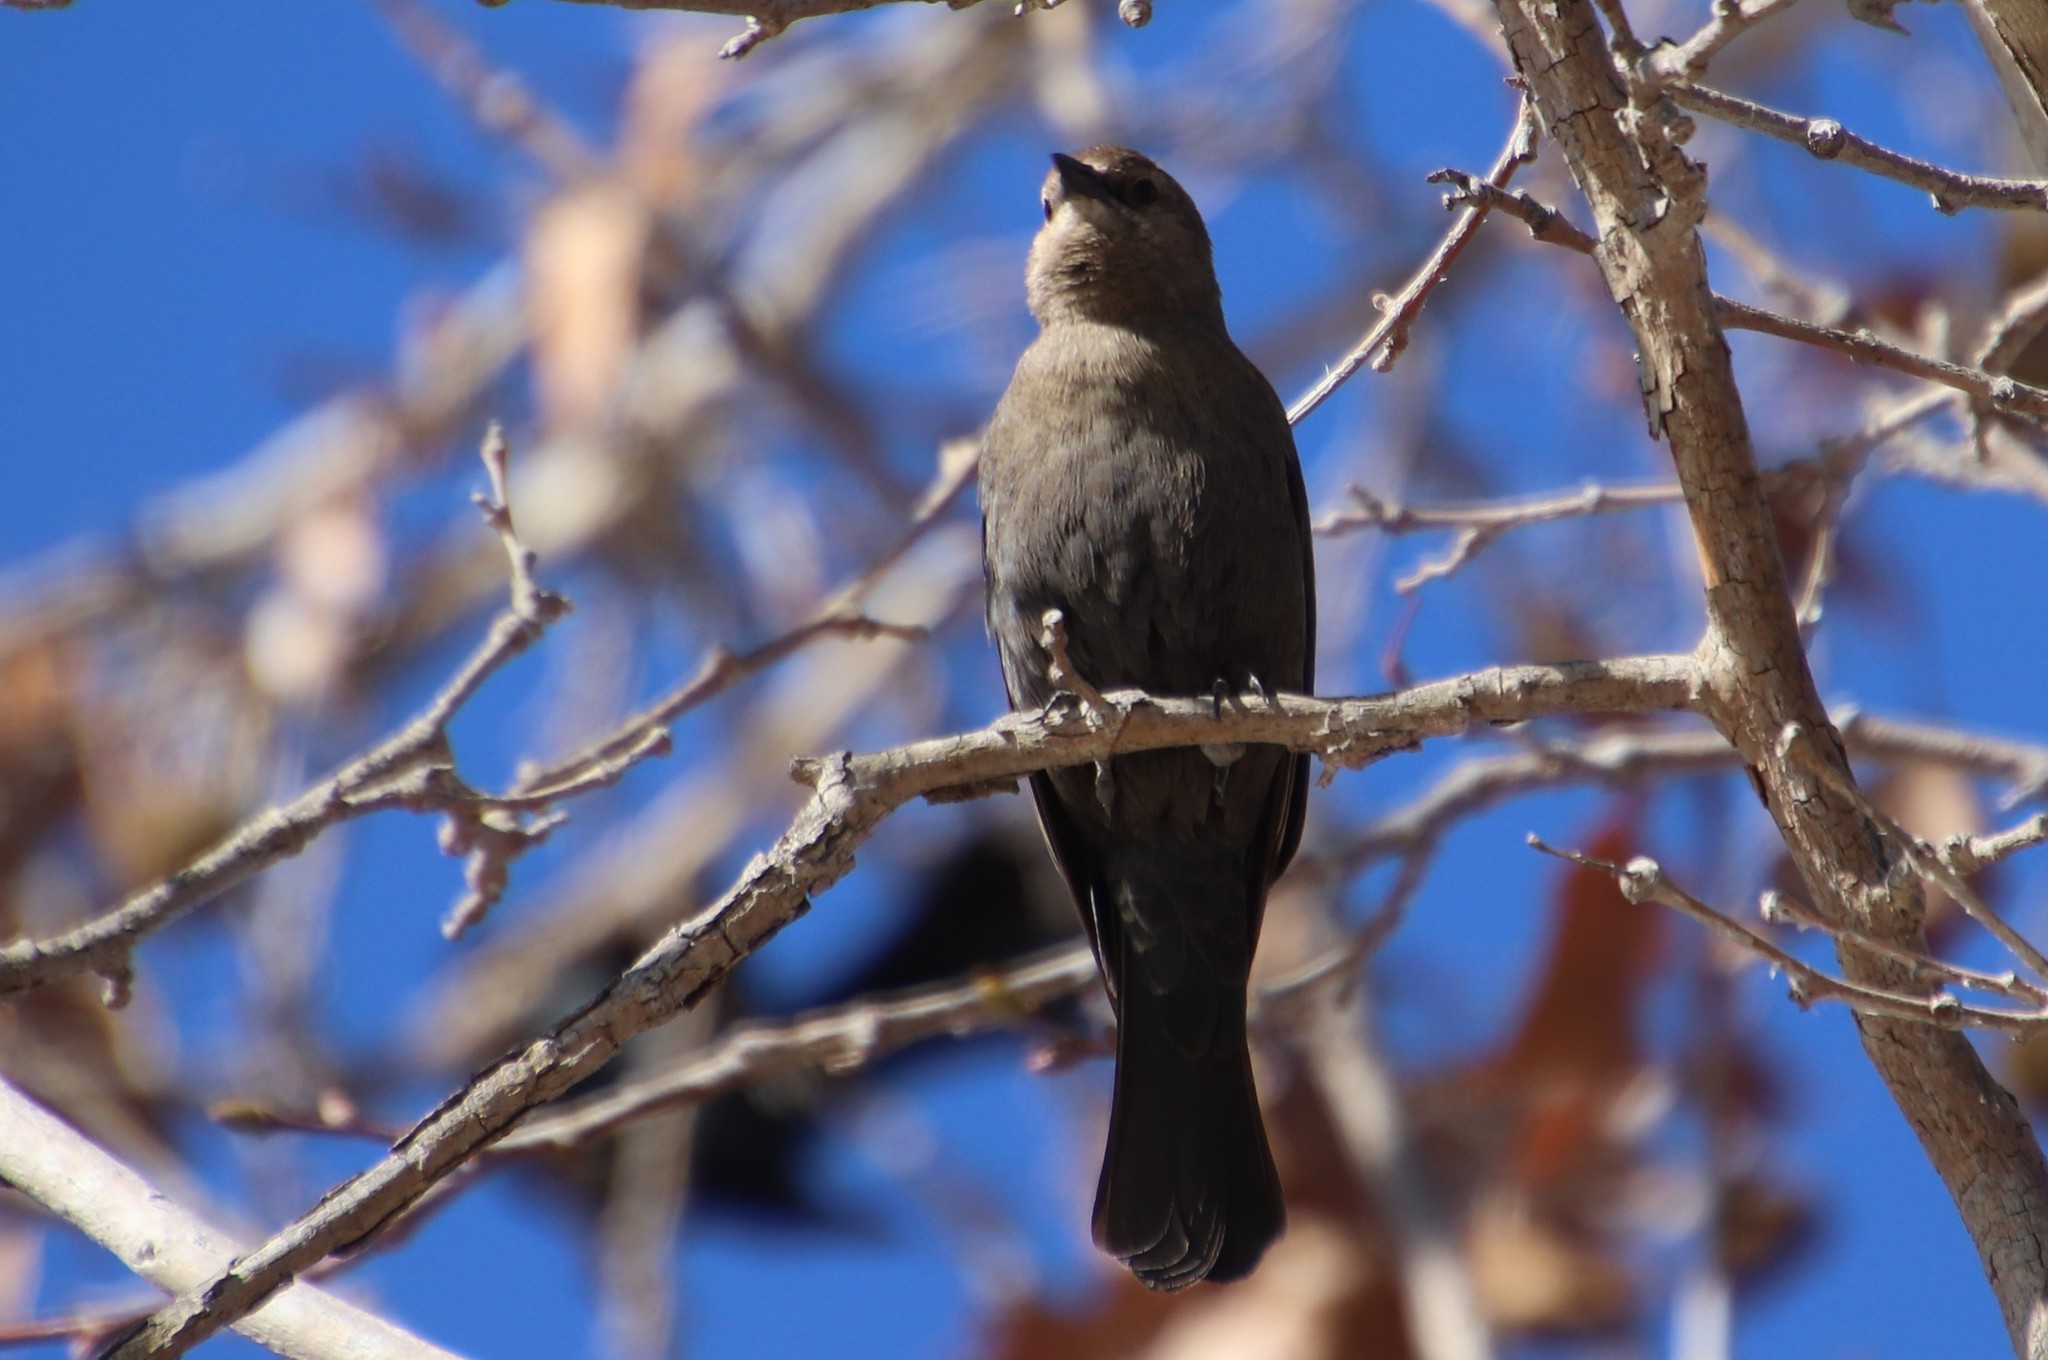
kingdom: Animalia
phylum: Chordata
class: Aves
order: Passeriformes
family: Icteridae
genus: Euphagus
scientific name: Euphagus cyanocephalus
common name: Brewer's blackbird
